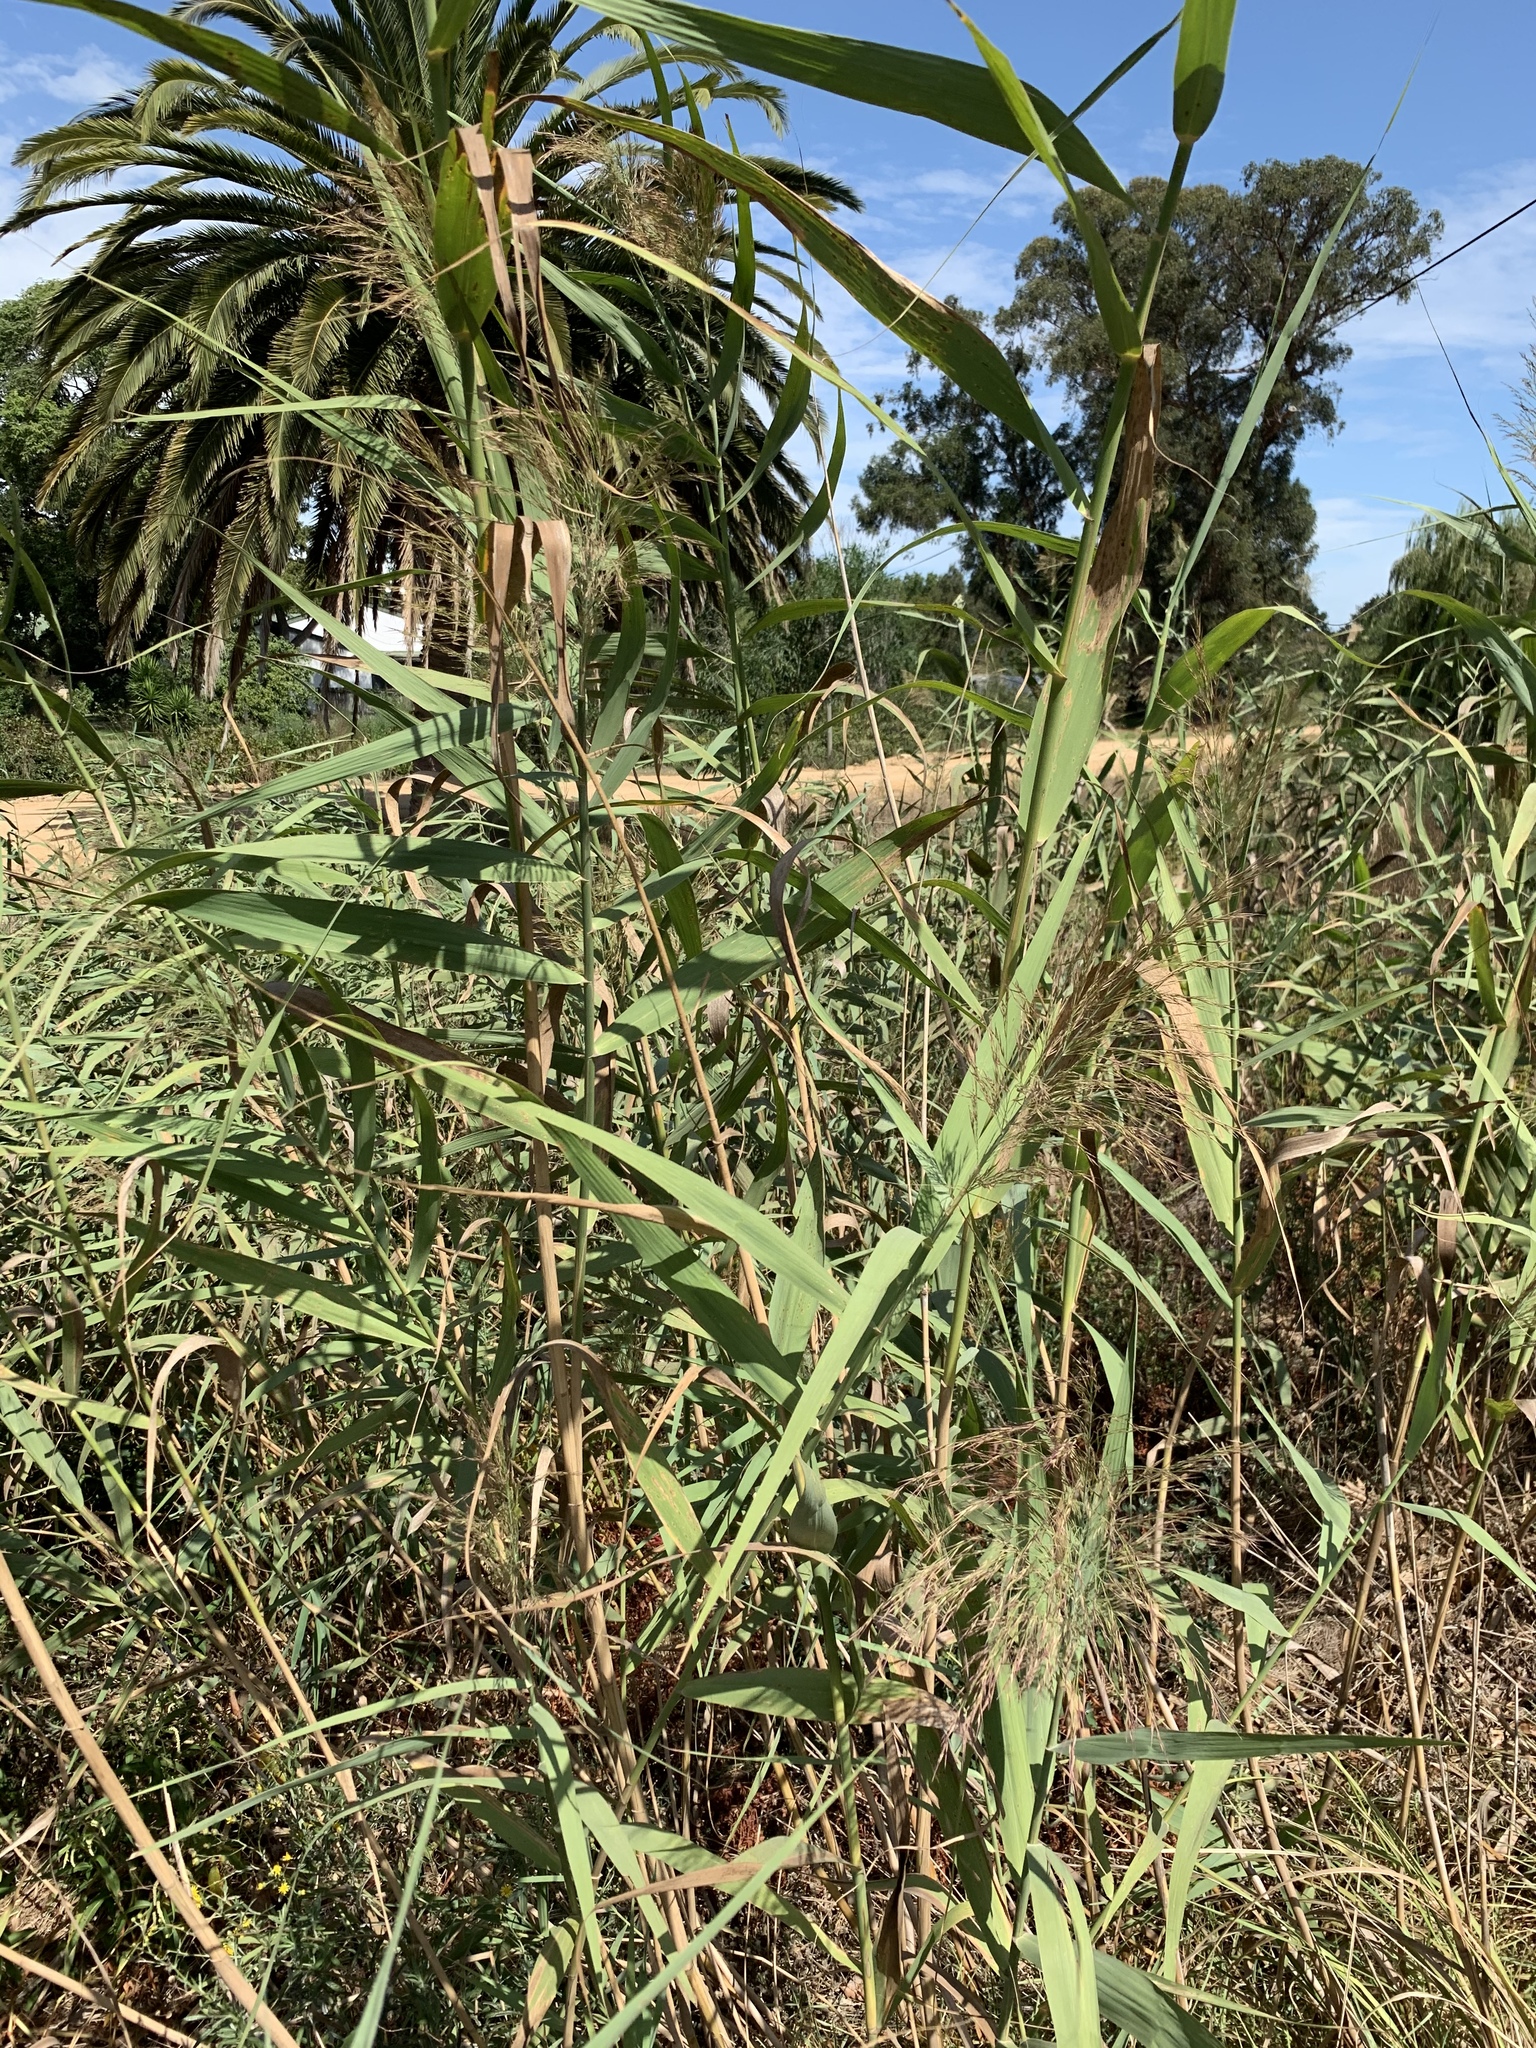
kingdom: Plantae
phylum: Tracheophyta
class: Liliopsida
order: Poales
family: Poaceae
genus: Phragmites
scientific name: Phragmites australis
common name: Common reed
